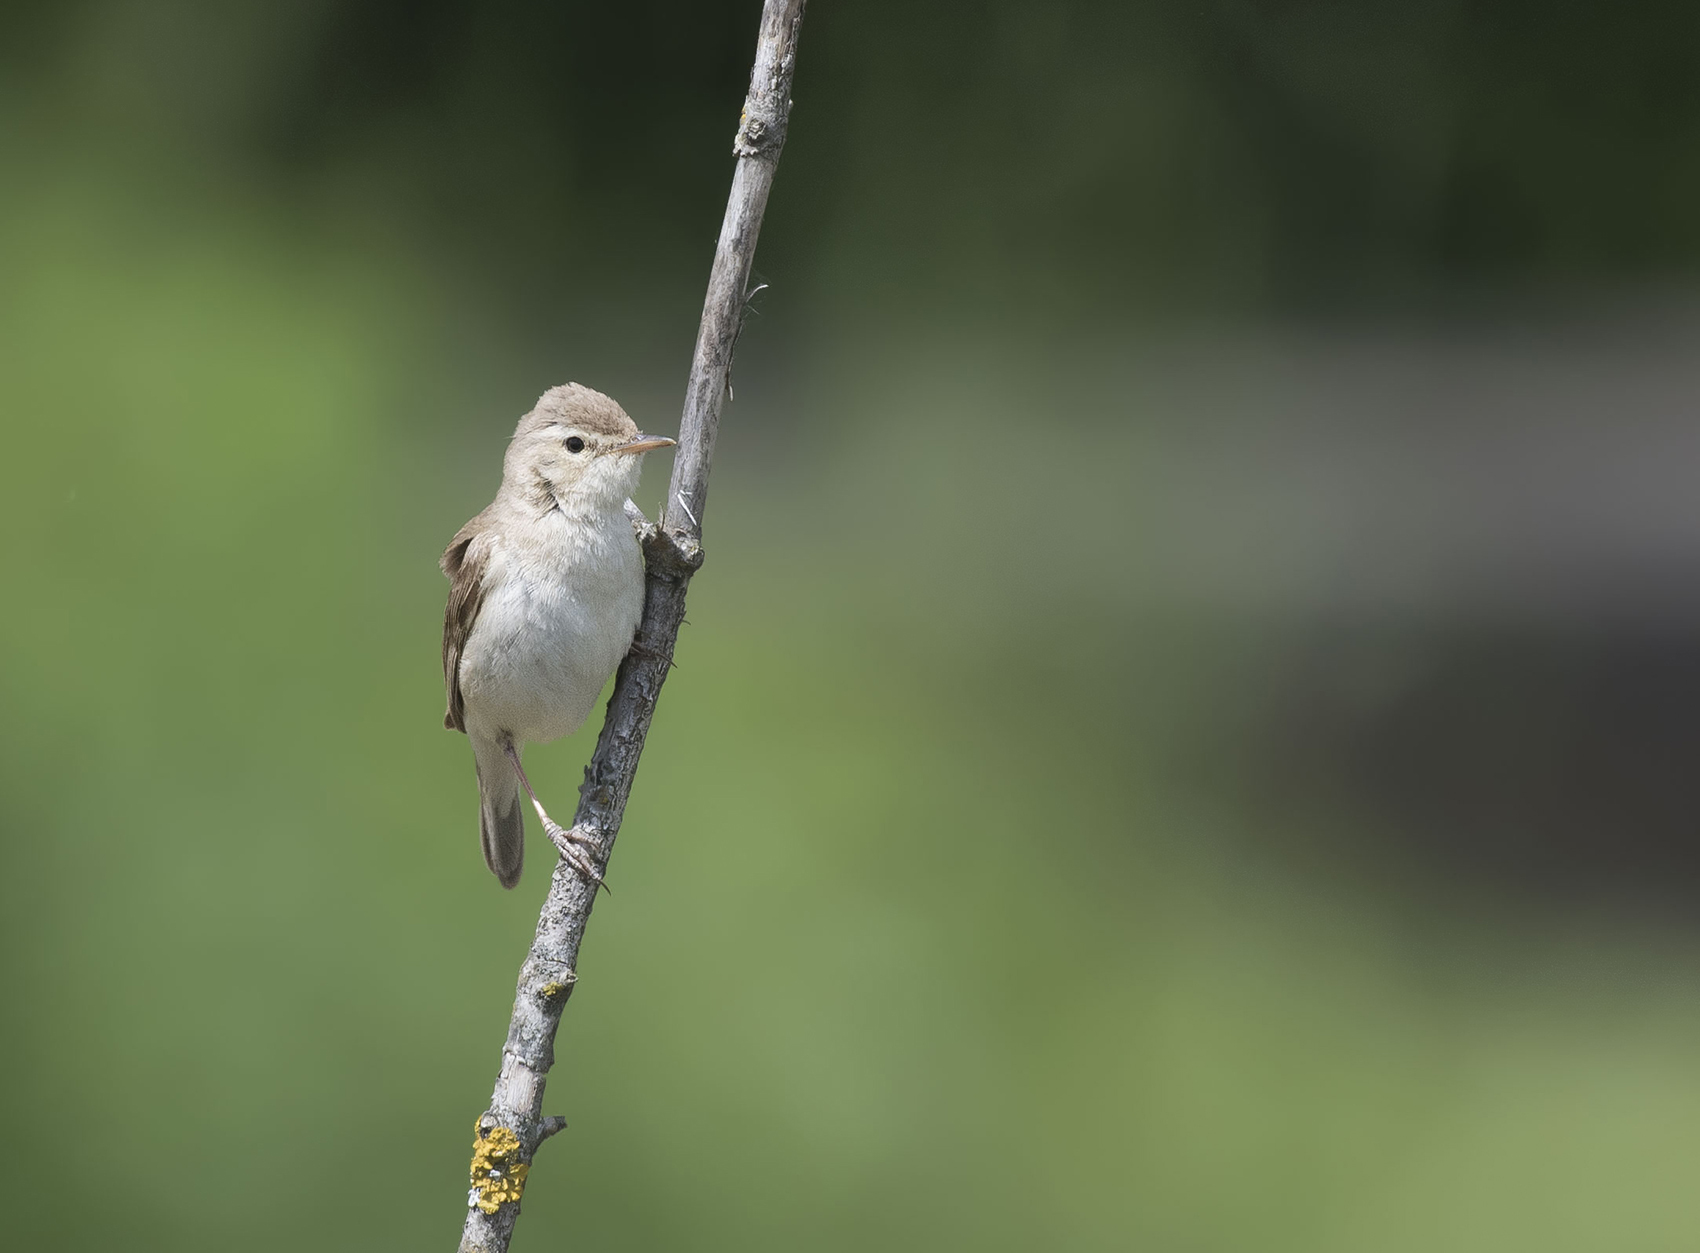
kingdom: Animalia
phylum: Chordata
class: Aves
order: Passeriformes
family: Acrocephalidae
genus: Iduna
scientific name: Iduna caligata
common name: Booted warbler
